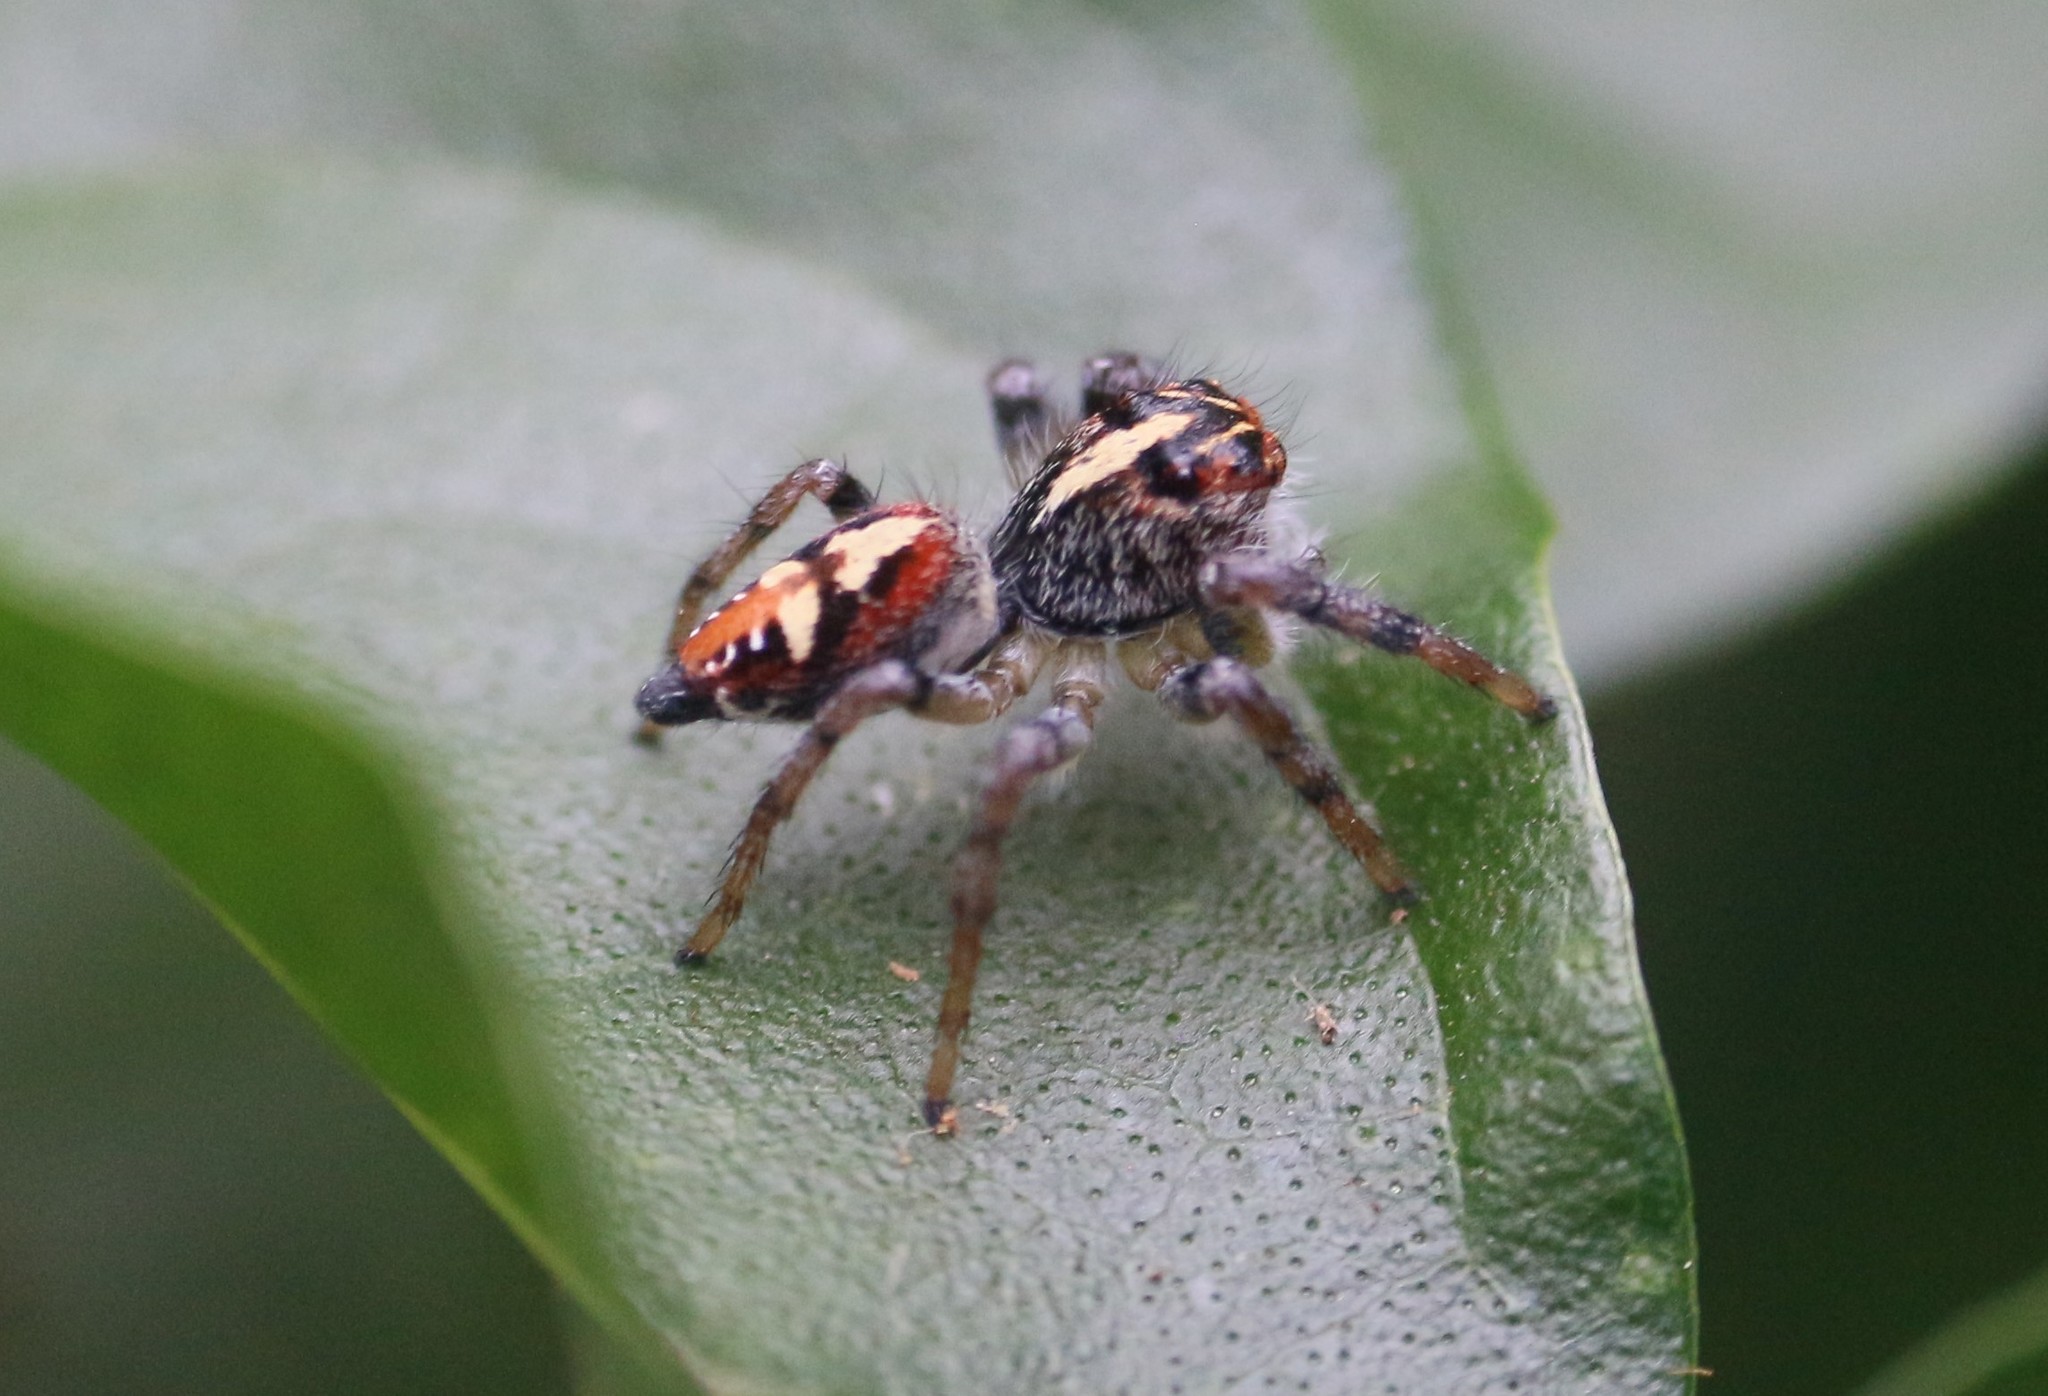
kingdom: Animalia
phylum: Arthropoda
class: Arachnida
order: Araneae
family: Salticidae
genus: Frigga
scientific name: Frigga quintensis
